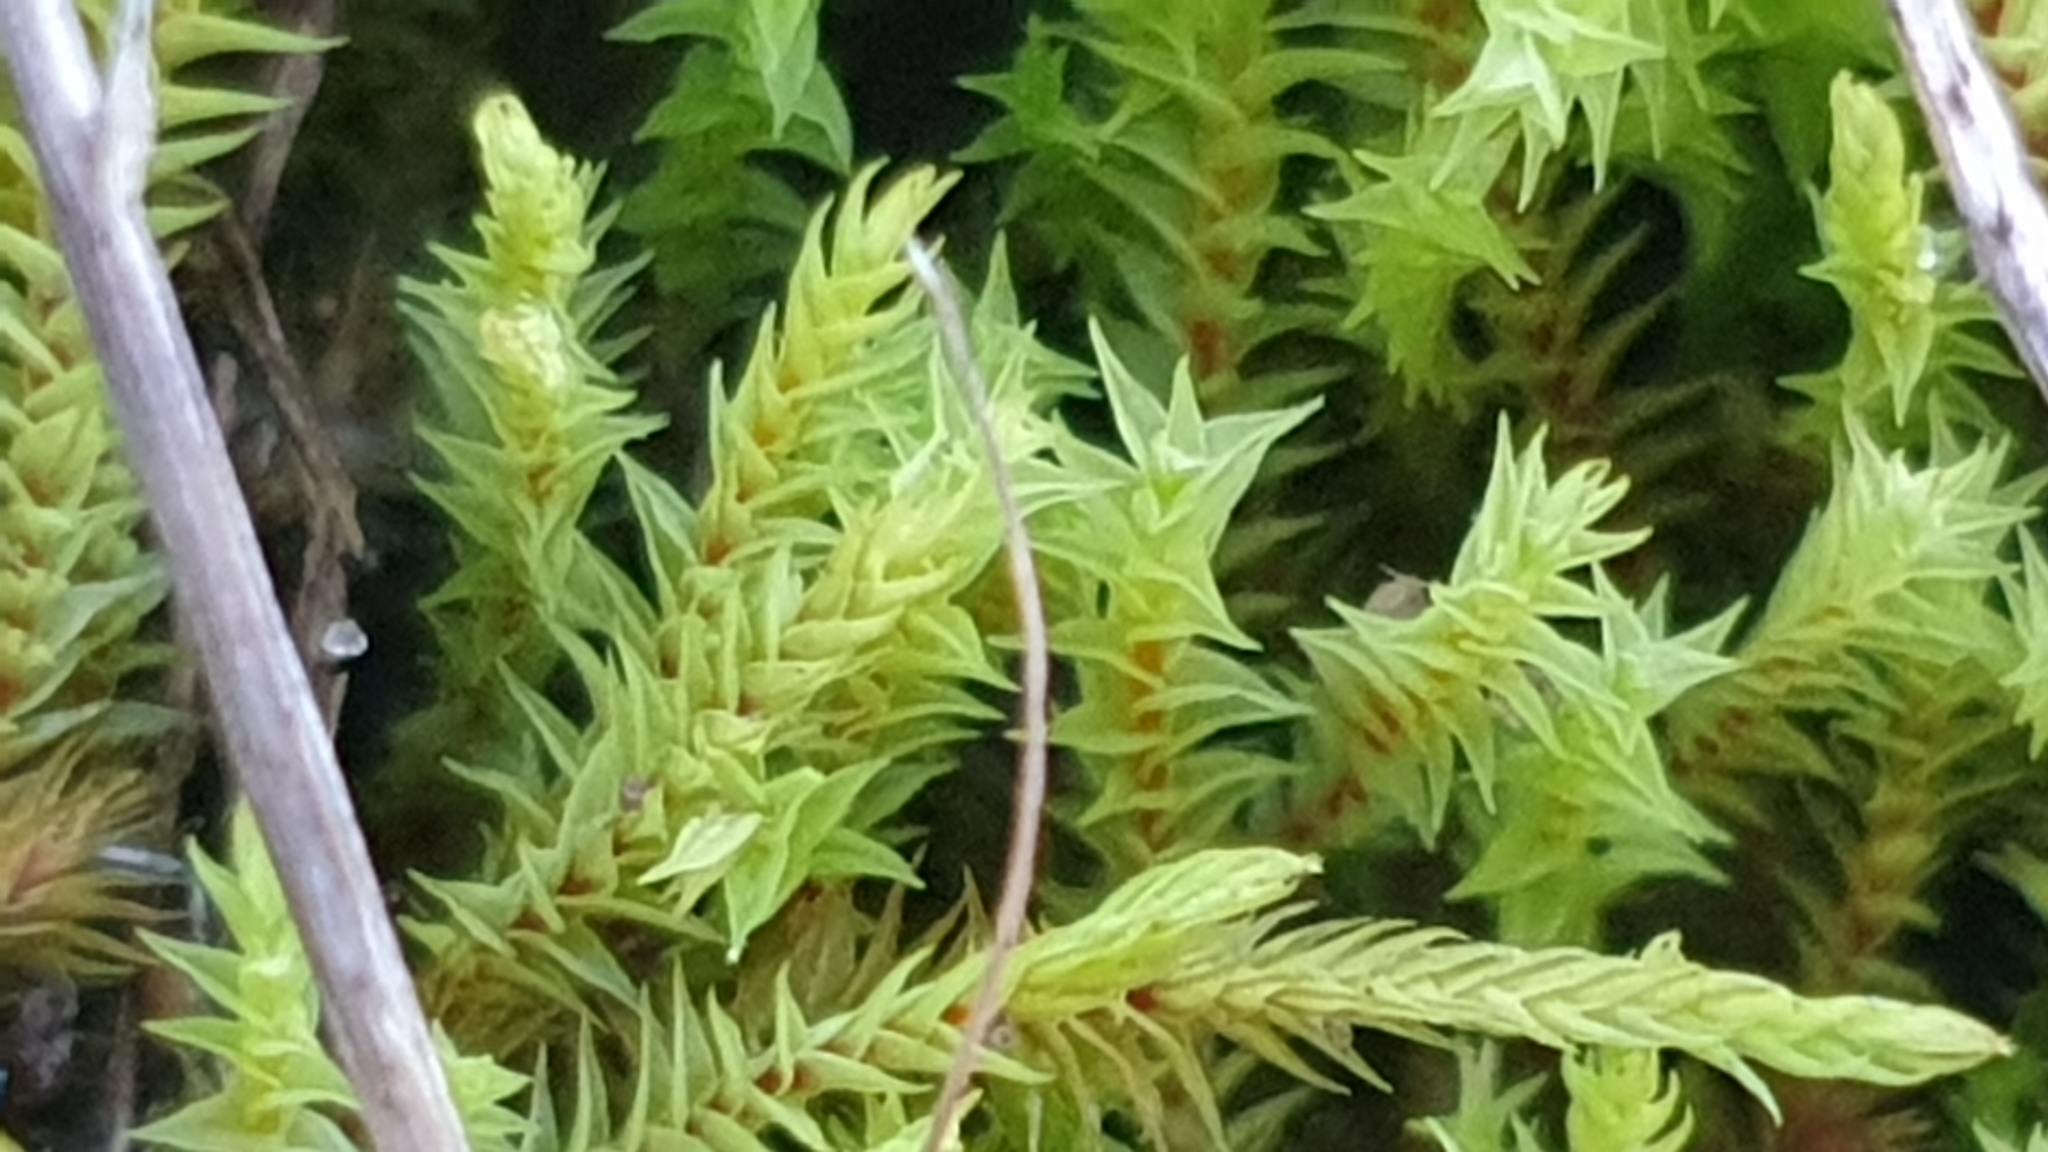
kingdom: Plantae
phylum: Bryophyta
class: Bryopsida
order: Pottiales
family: Pottiaceae
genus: Triquetrella
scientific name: Triquetrella papillata
